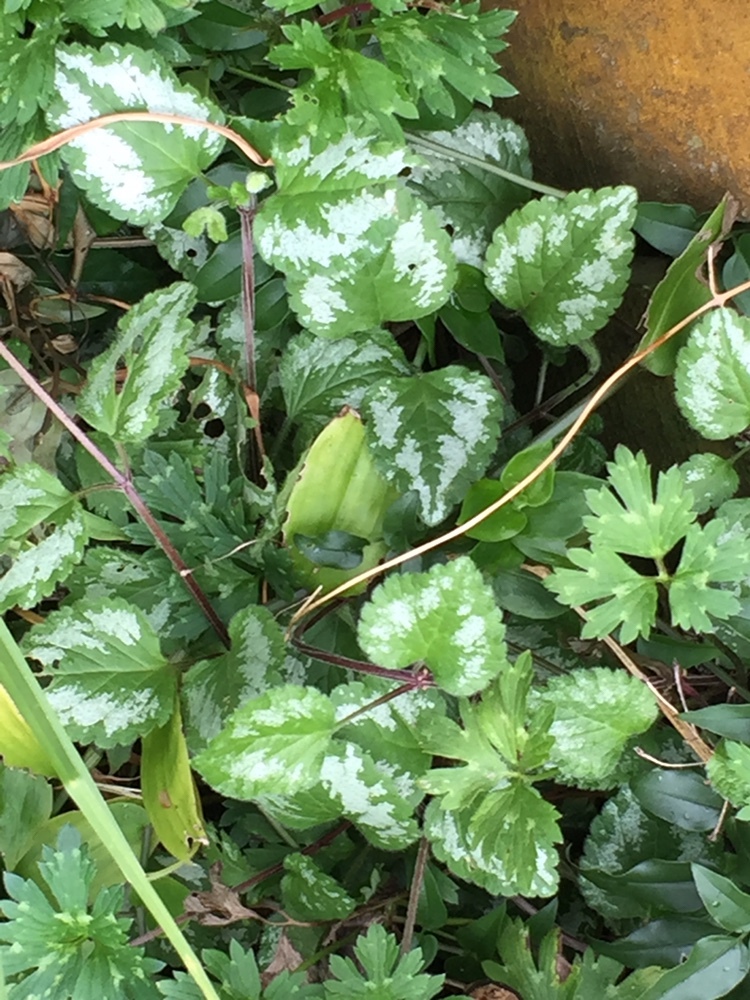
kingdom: Plantae
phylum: Tracheophyta
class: Magnoliopsida
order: Lamiales
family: Lamiaceae
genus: Lamium
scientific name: Lamium galeobdolon
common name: Yellow archangel
